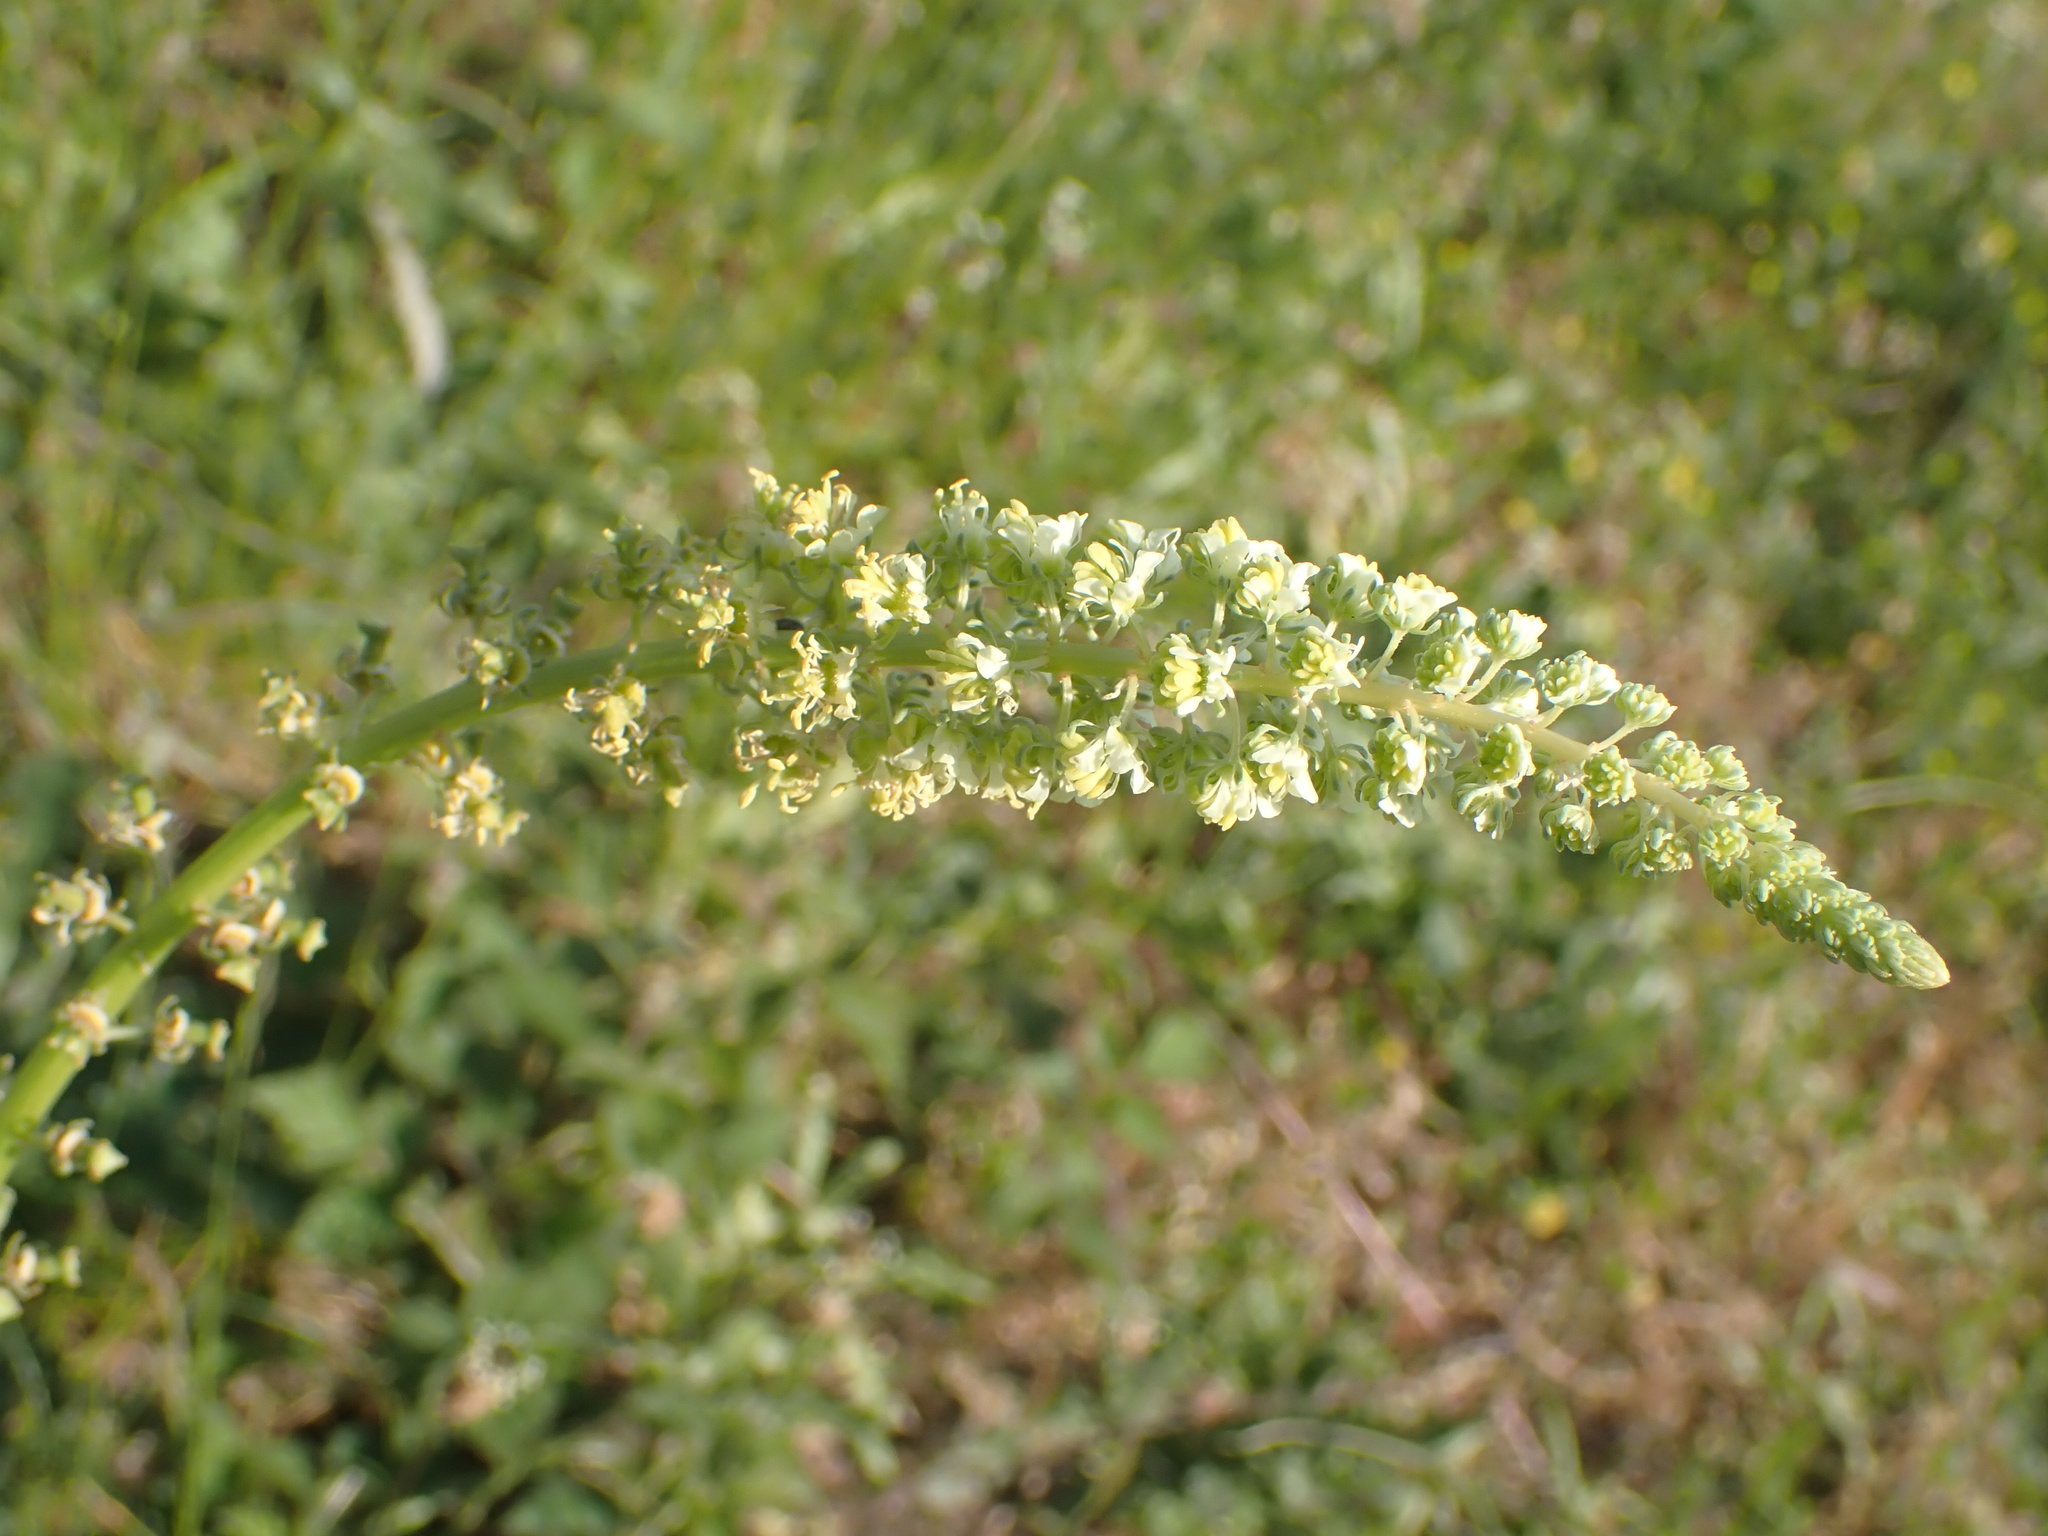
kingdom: Plantae
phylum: Tracheophyta
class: Magnoliopsida
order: Brassicales
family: Resedaceae
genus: Reseda
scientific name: Reseda lutea
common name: Wild mignonette
